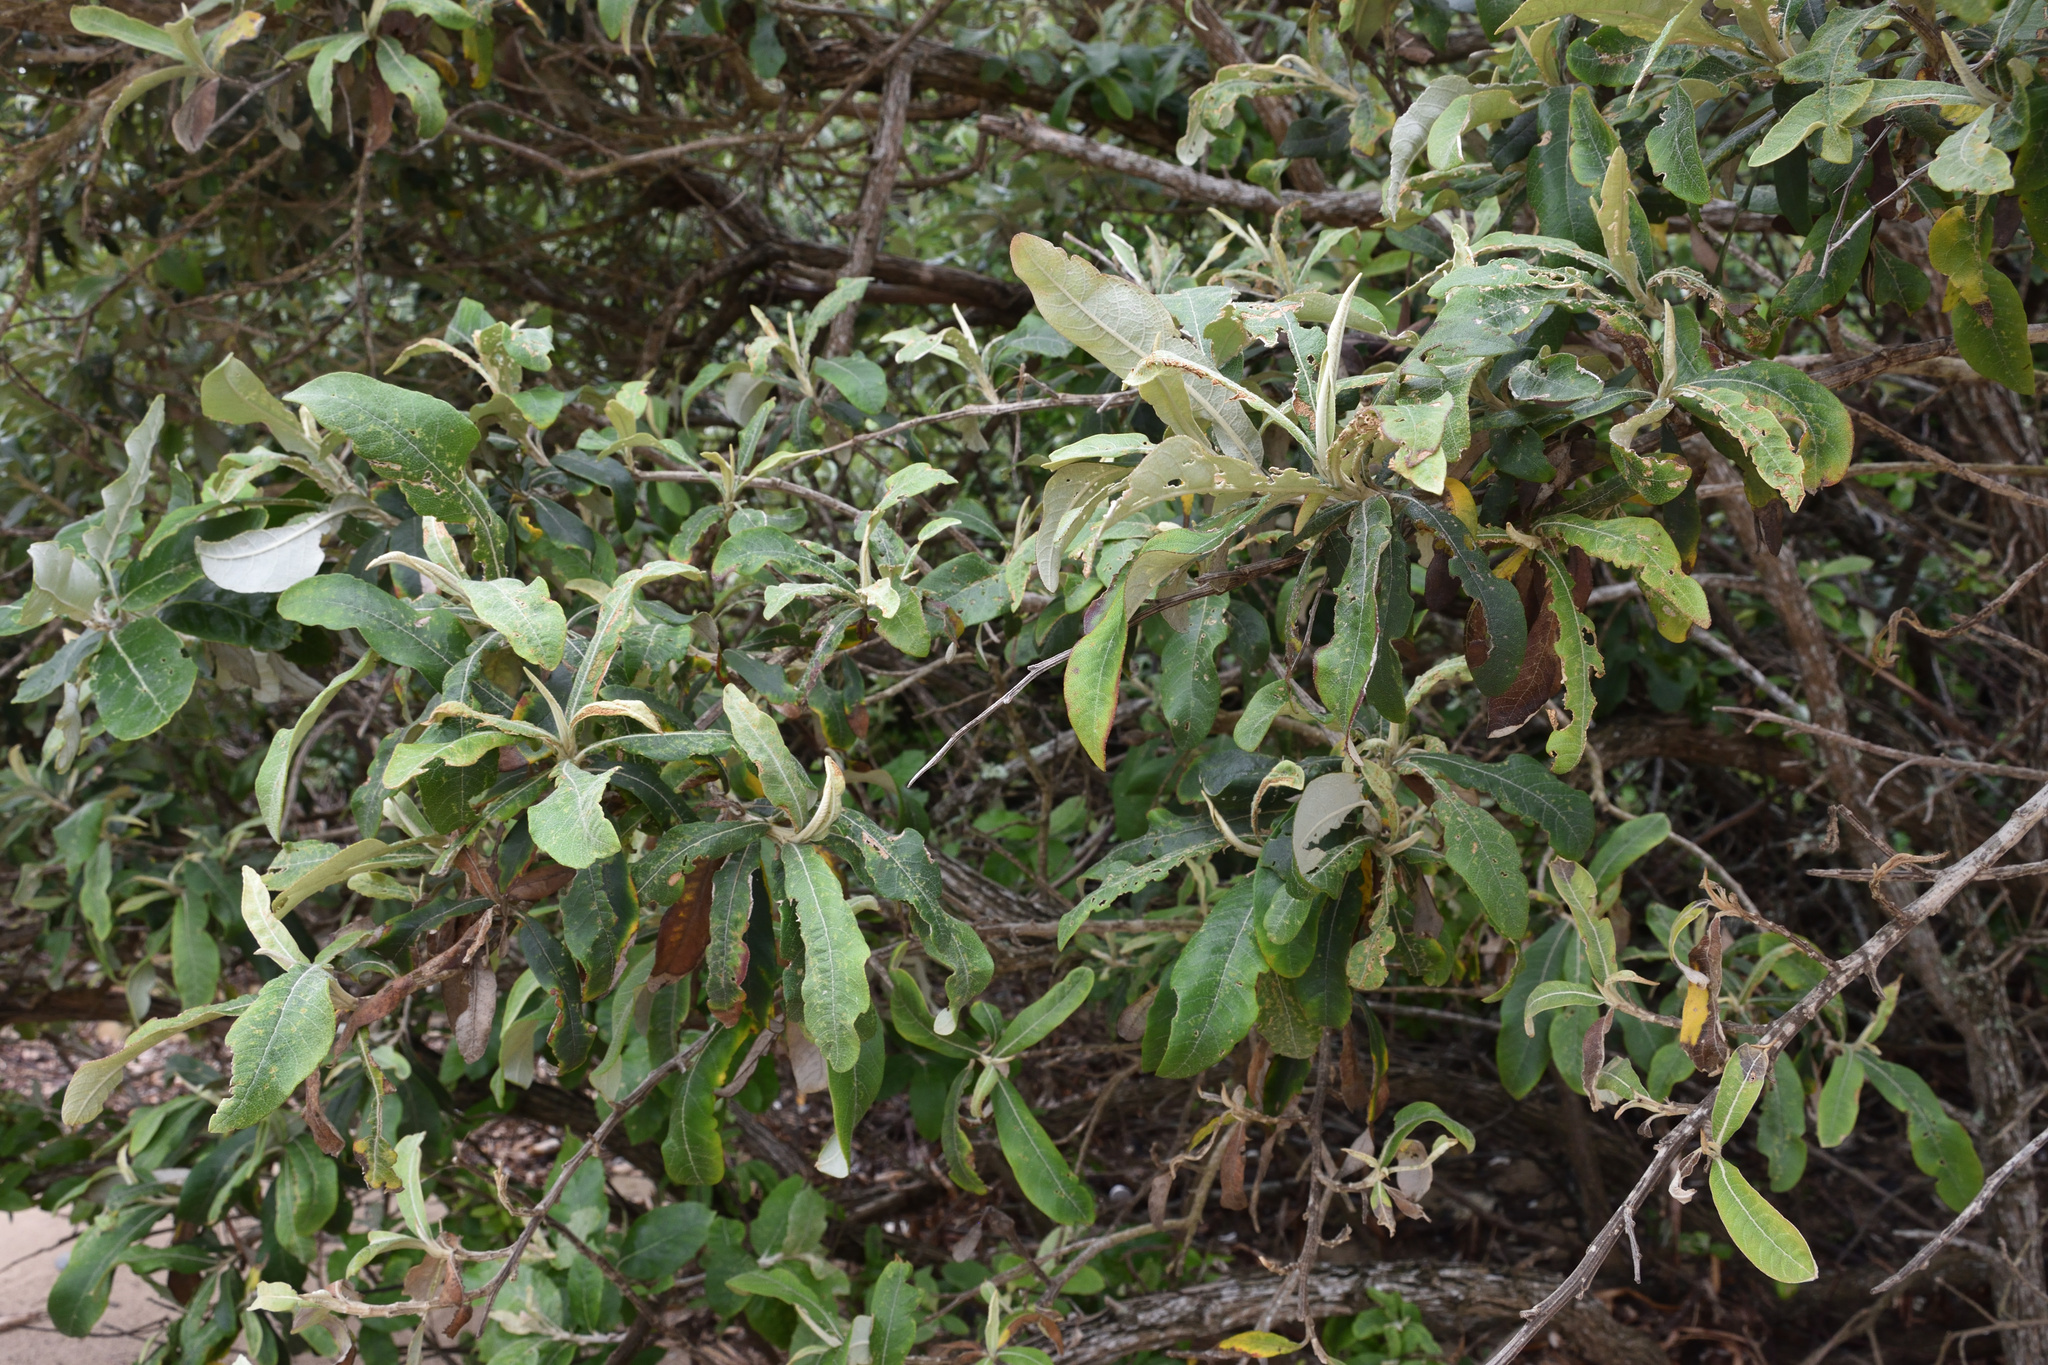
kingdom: Plantae
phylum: Tracheophyta
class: Magnoliopsida
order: Asterales
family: Asteraceae
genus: Tarchonanthus
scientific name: Tarchonanthus littoralis
